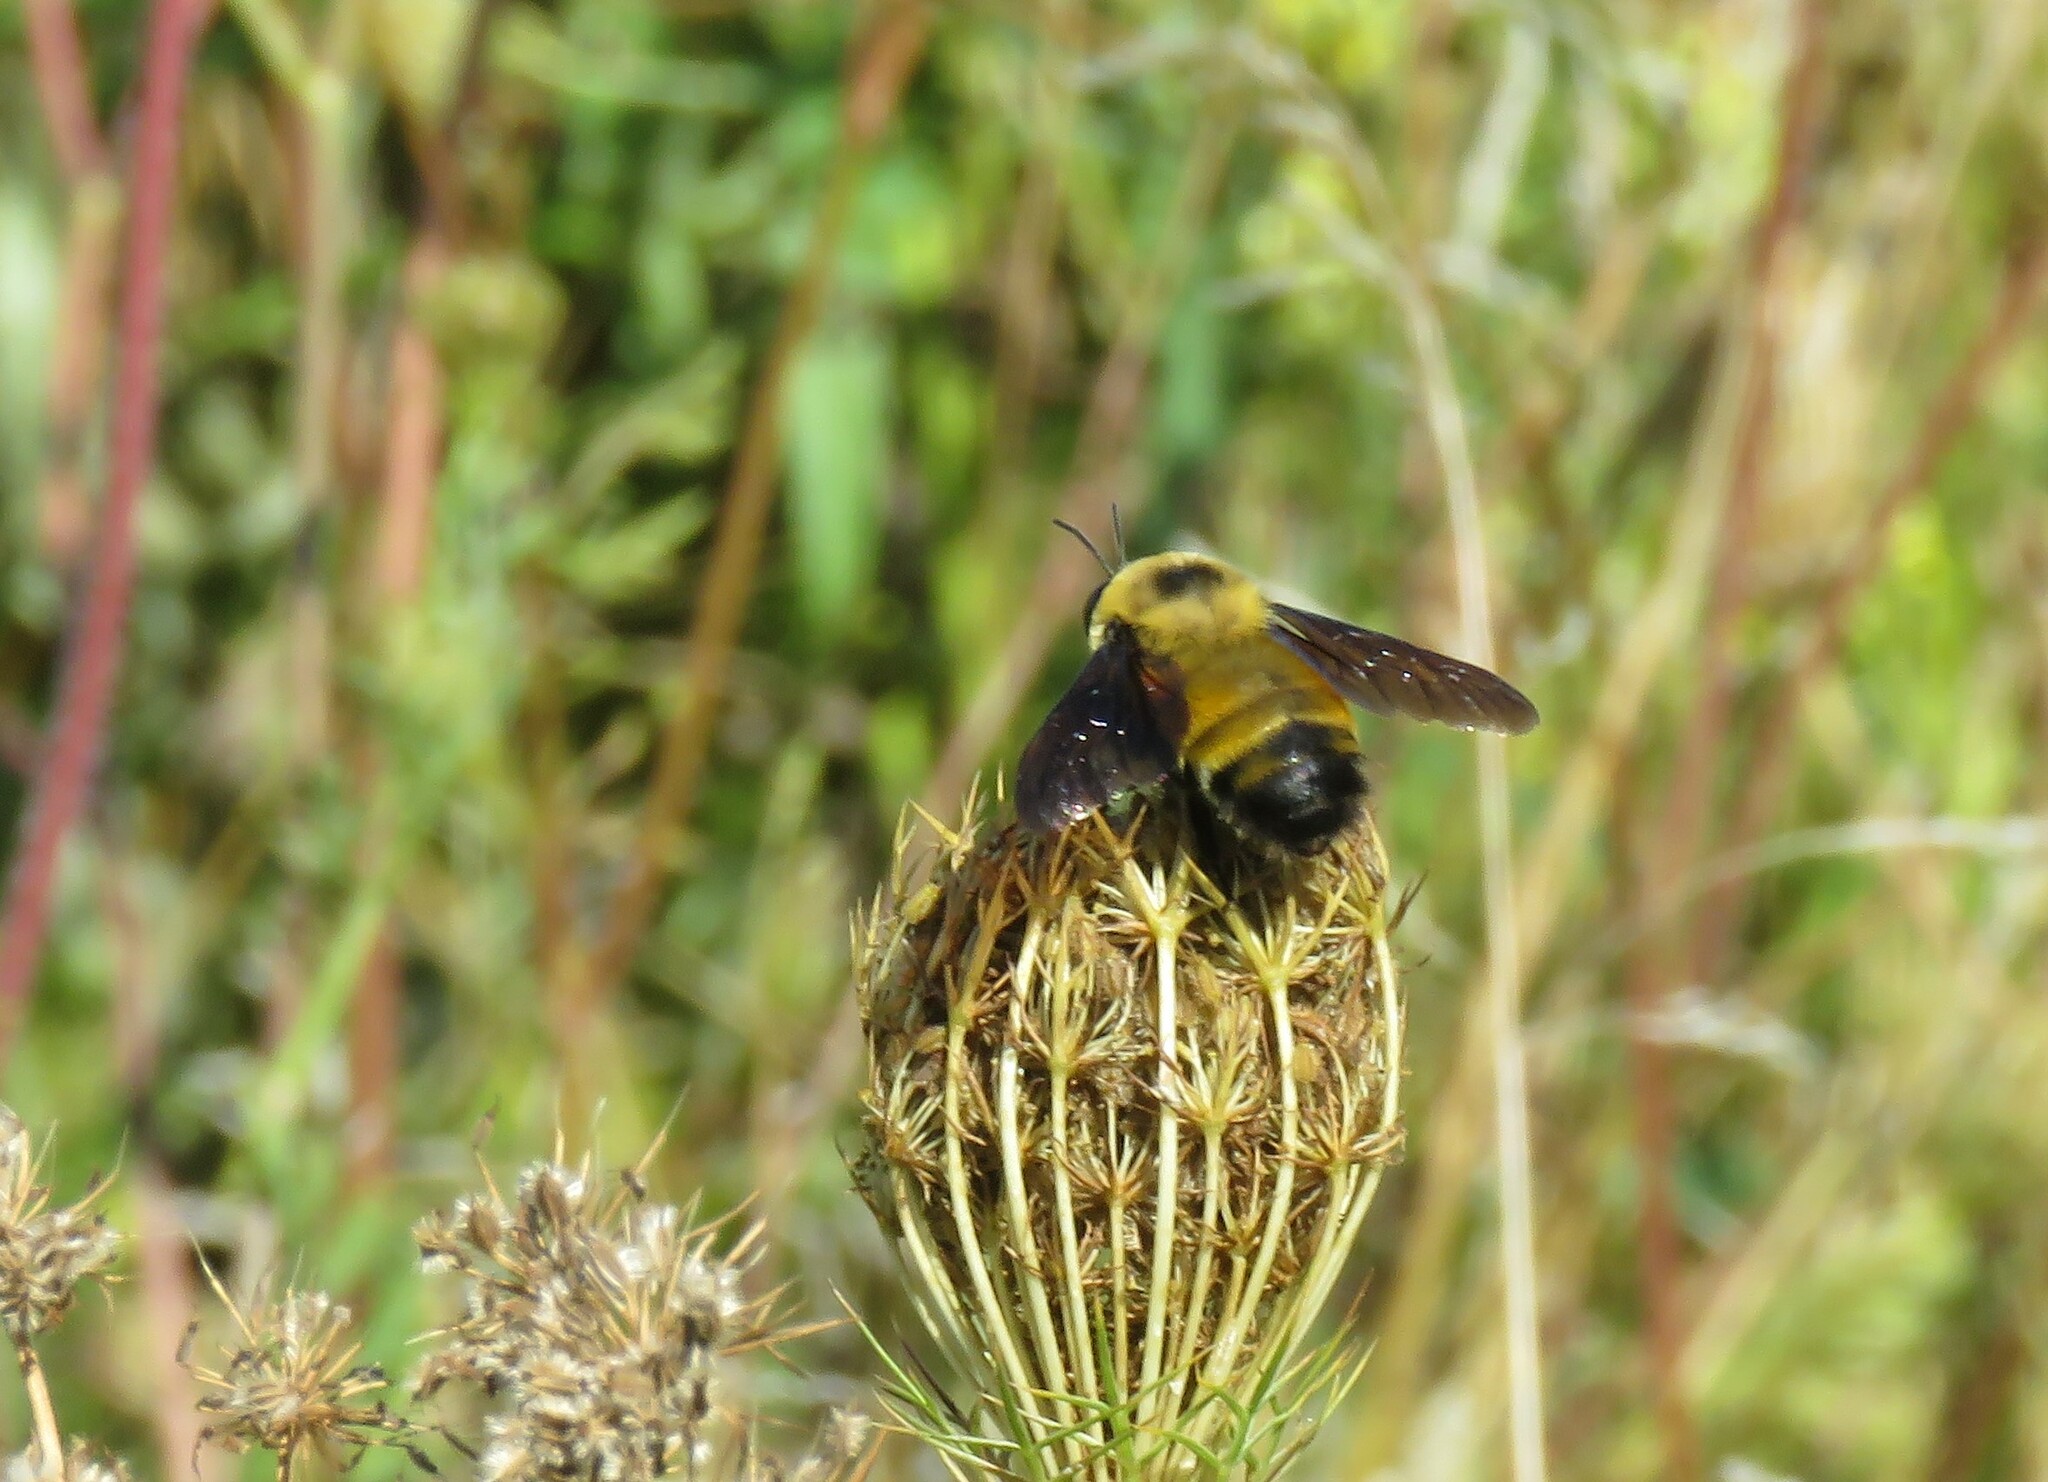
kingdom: Animalia
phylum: Arthropoda
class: Insecta
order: Hymenoptera
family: Apidae
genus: Bombus
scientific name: Bombus auricomus
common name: Black and gold bumble bee
